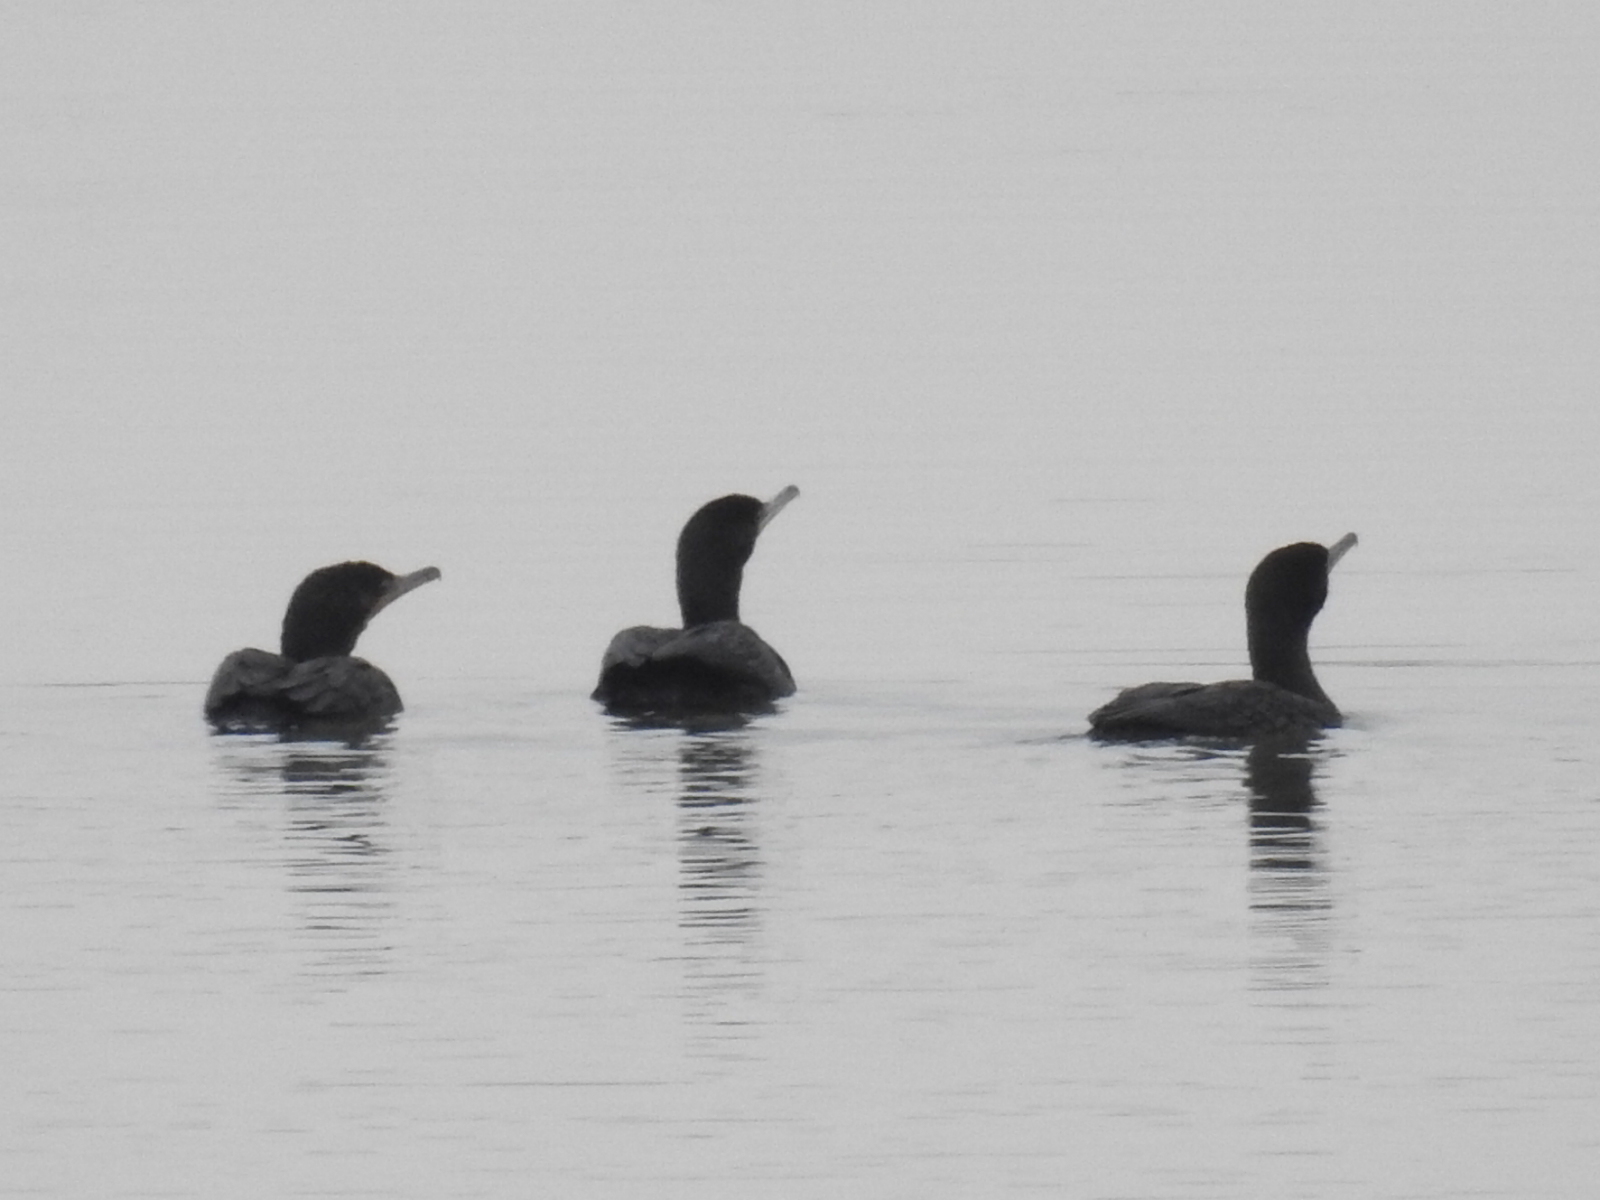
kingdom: Animalia
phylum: Chordata
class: Aves
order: Suliformes
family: Phalacrocoracidae
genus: Phalacrocorax
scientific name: Phalacrocorax auritus
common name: Double-crested cormorant
